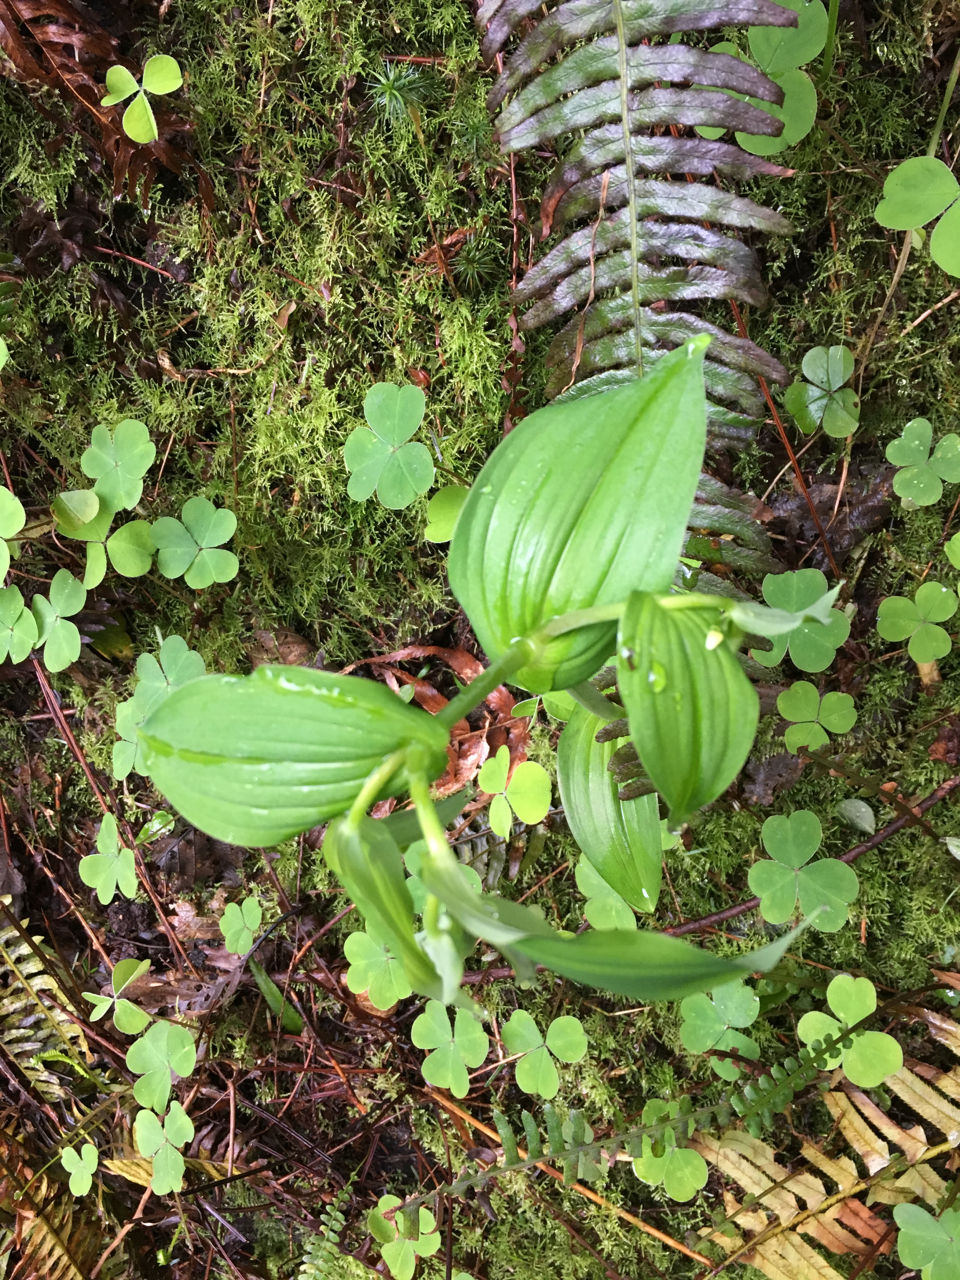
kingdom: Plantae
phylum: Tracheophyta
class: Liliopsida
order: Liliales
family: Liliaceae
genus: Streptopus
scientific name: Streptopus amplexifolius
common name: Clasp twisted stalk
